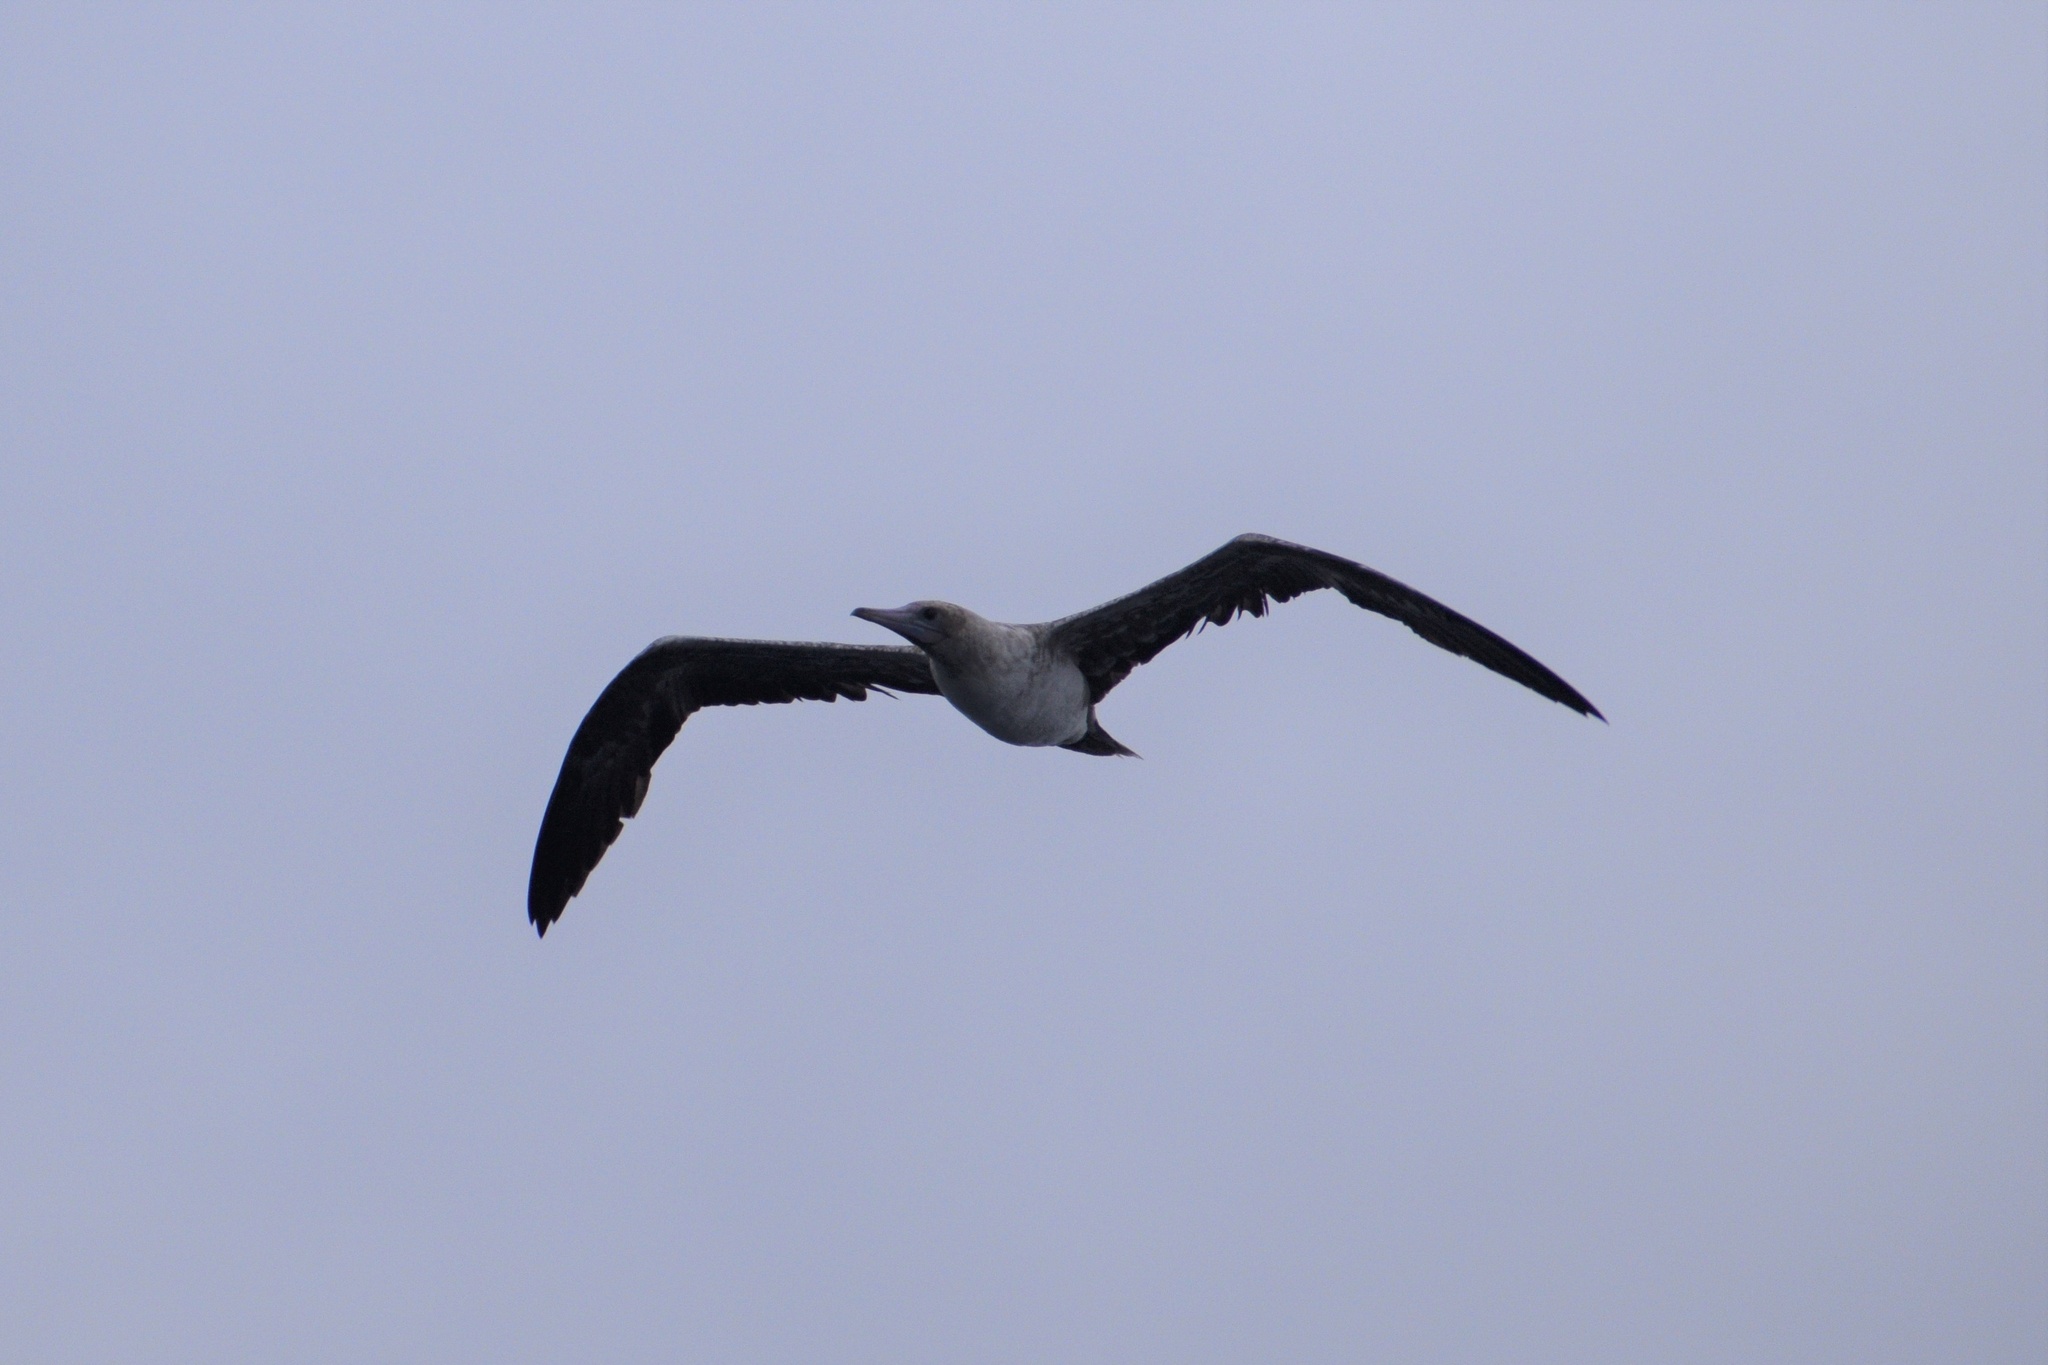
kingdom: Animalia
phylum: Chordata
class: Aves
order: Suliformes
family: Sulidae
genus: Sula
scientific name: Sula sula
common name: Red-footed booby
